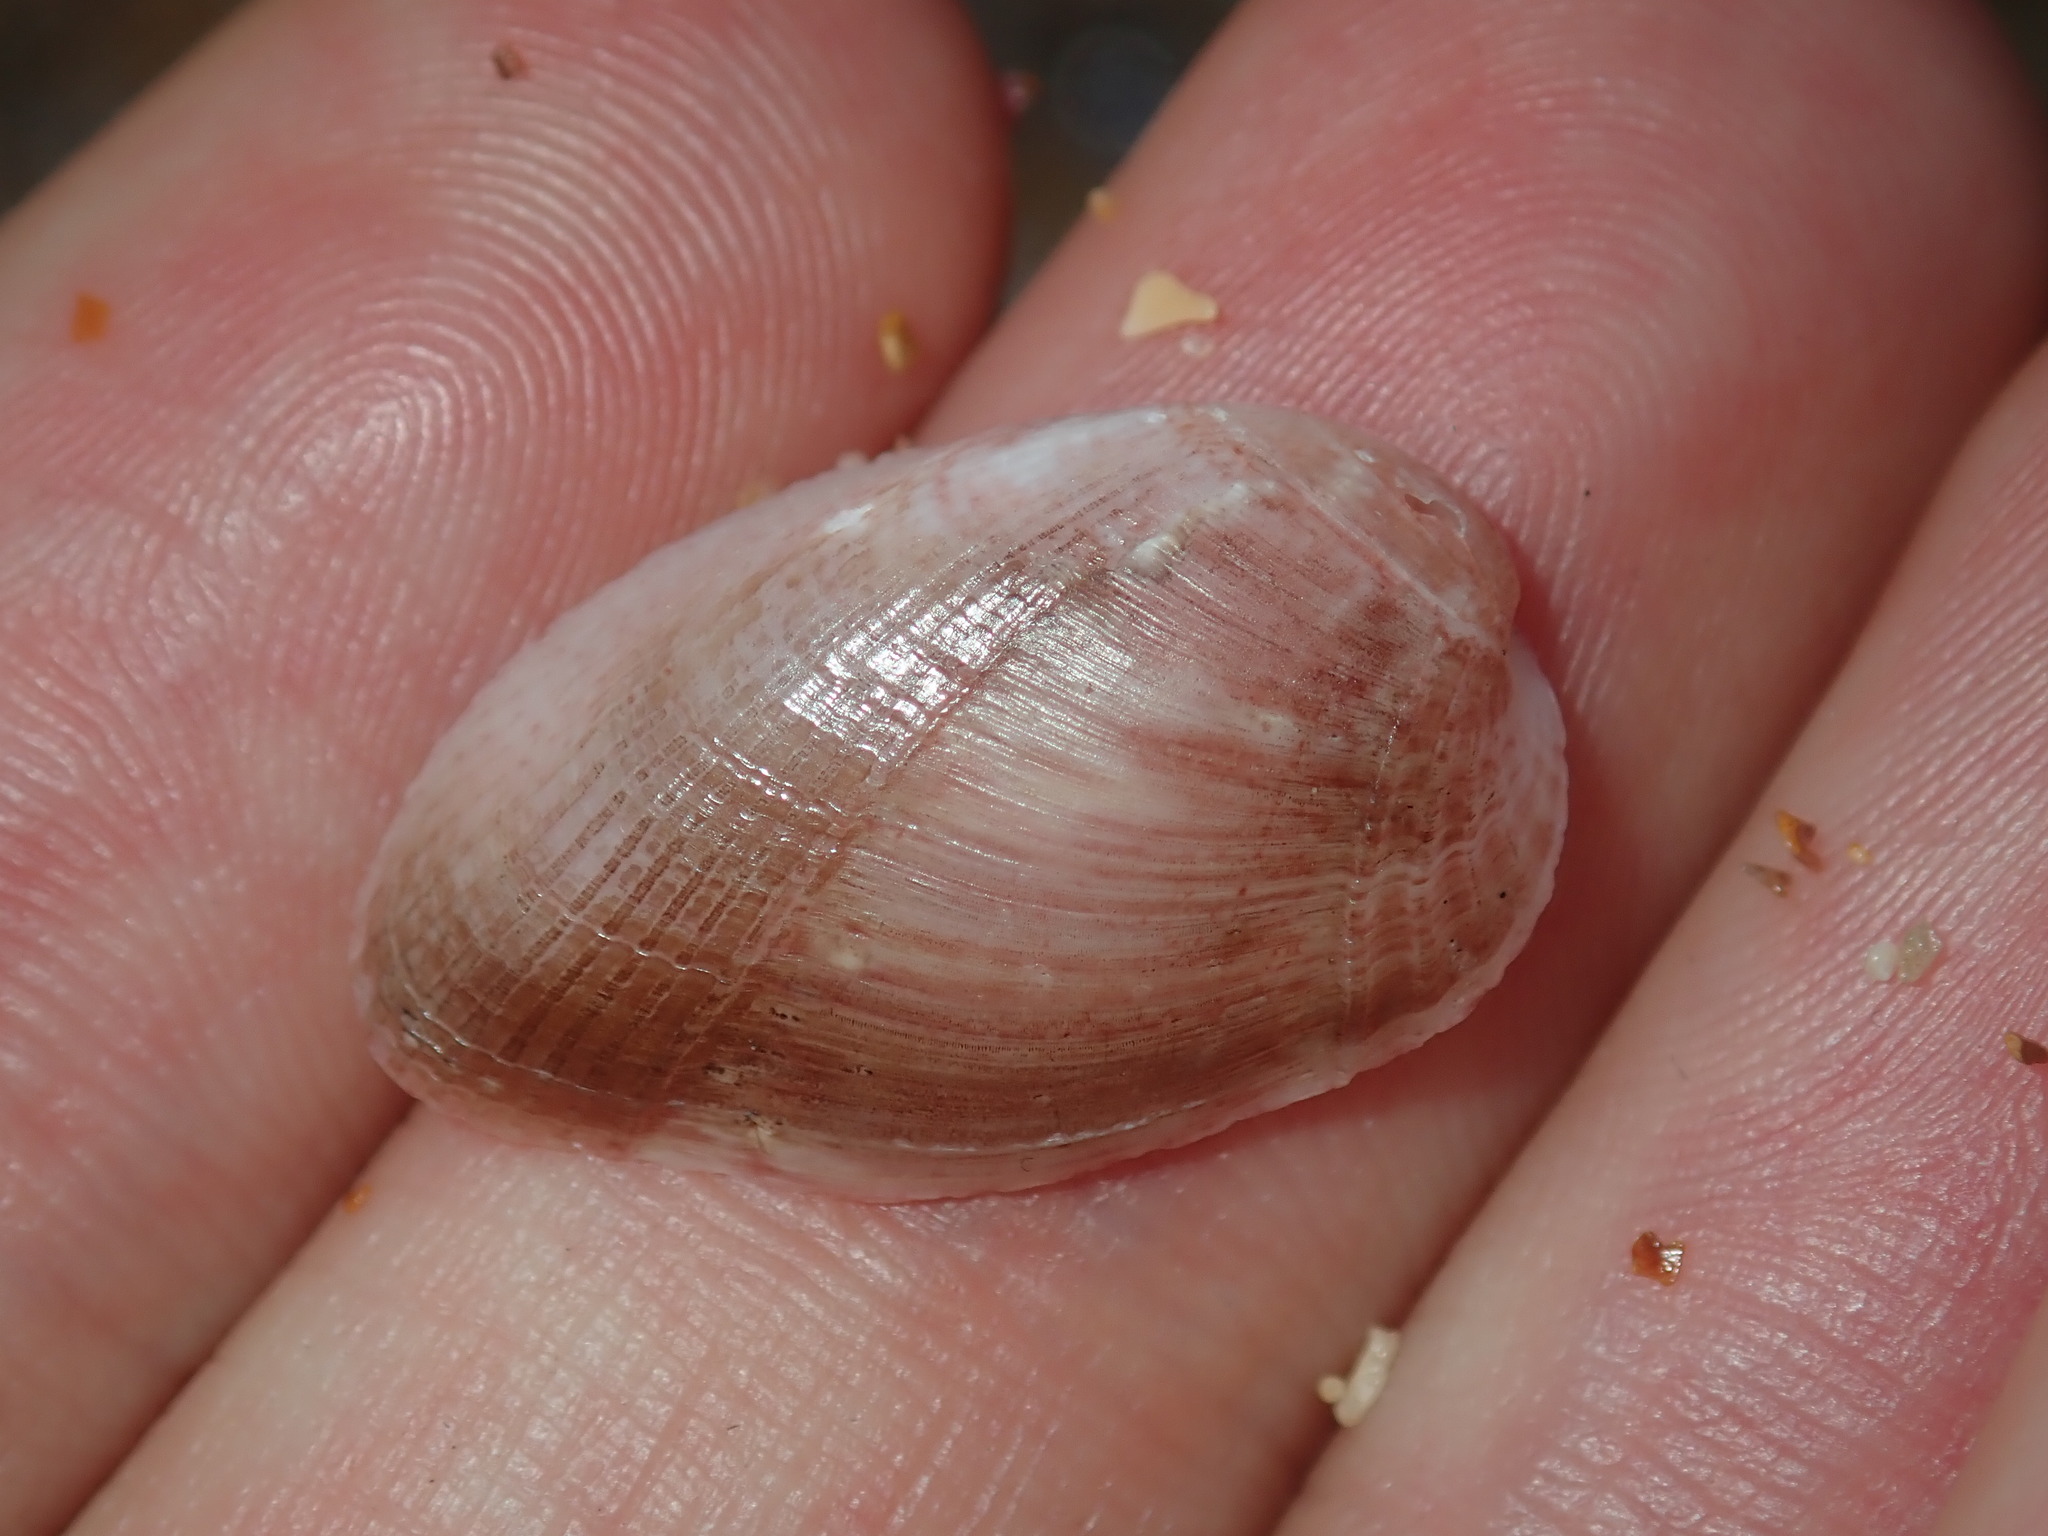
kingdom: Animalia
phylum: Mollusca
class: Bivalvia
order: Mytilida
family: Mytilidae
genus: Musculus
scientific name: Musculus impactus
